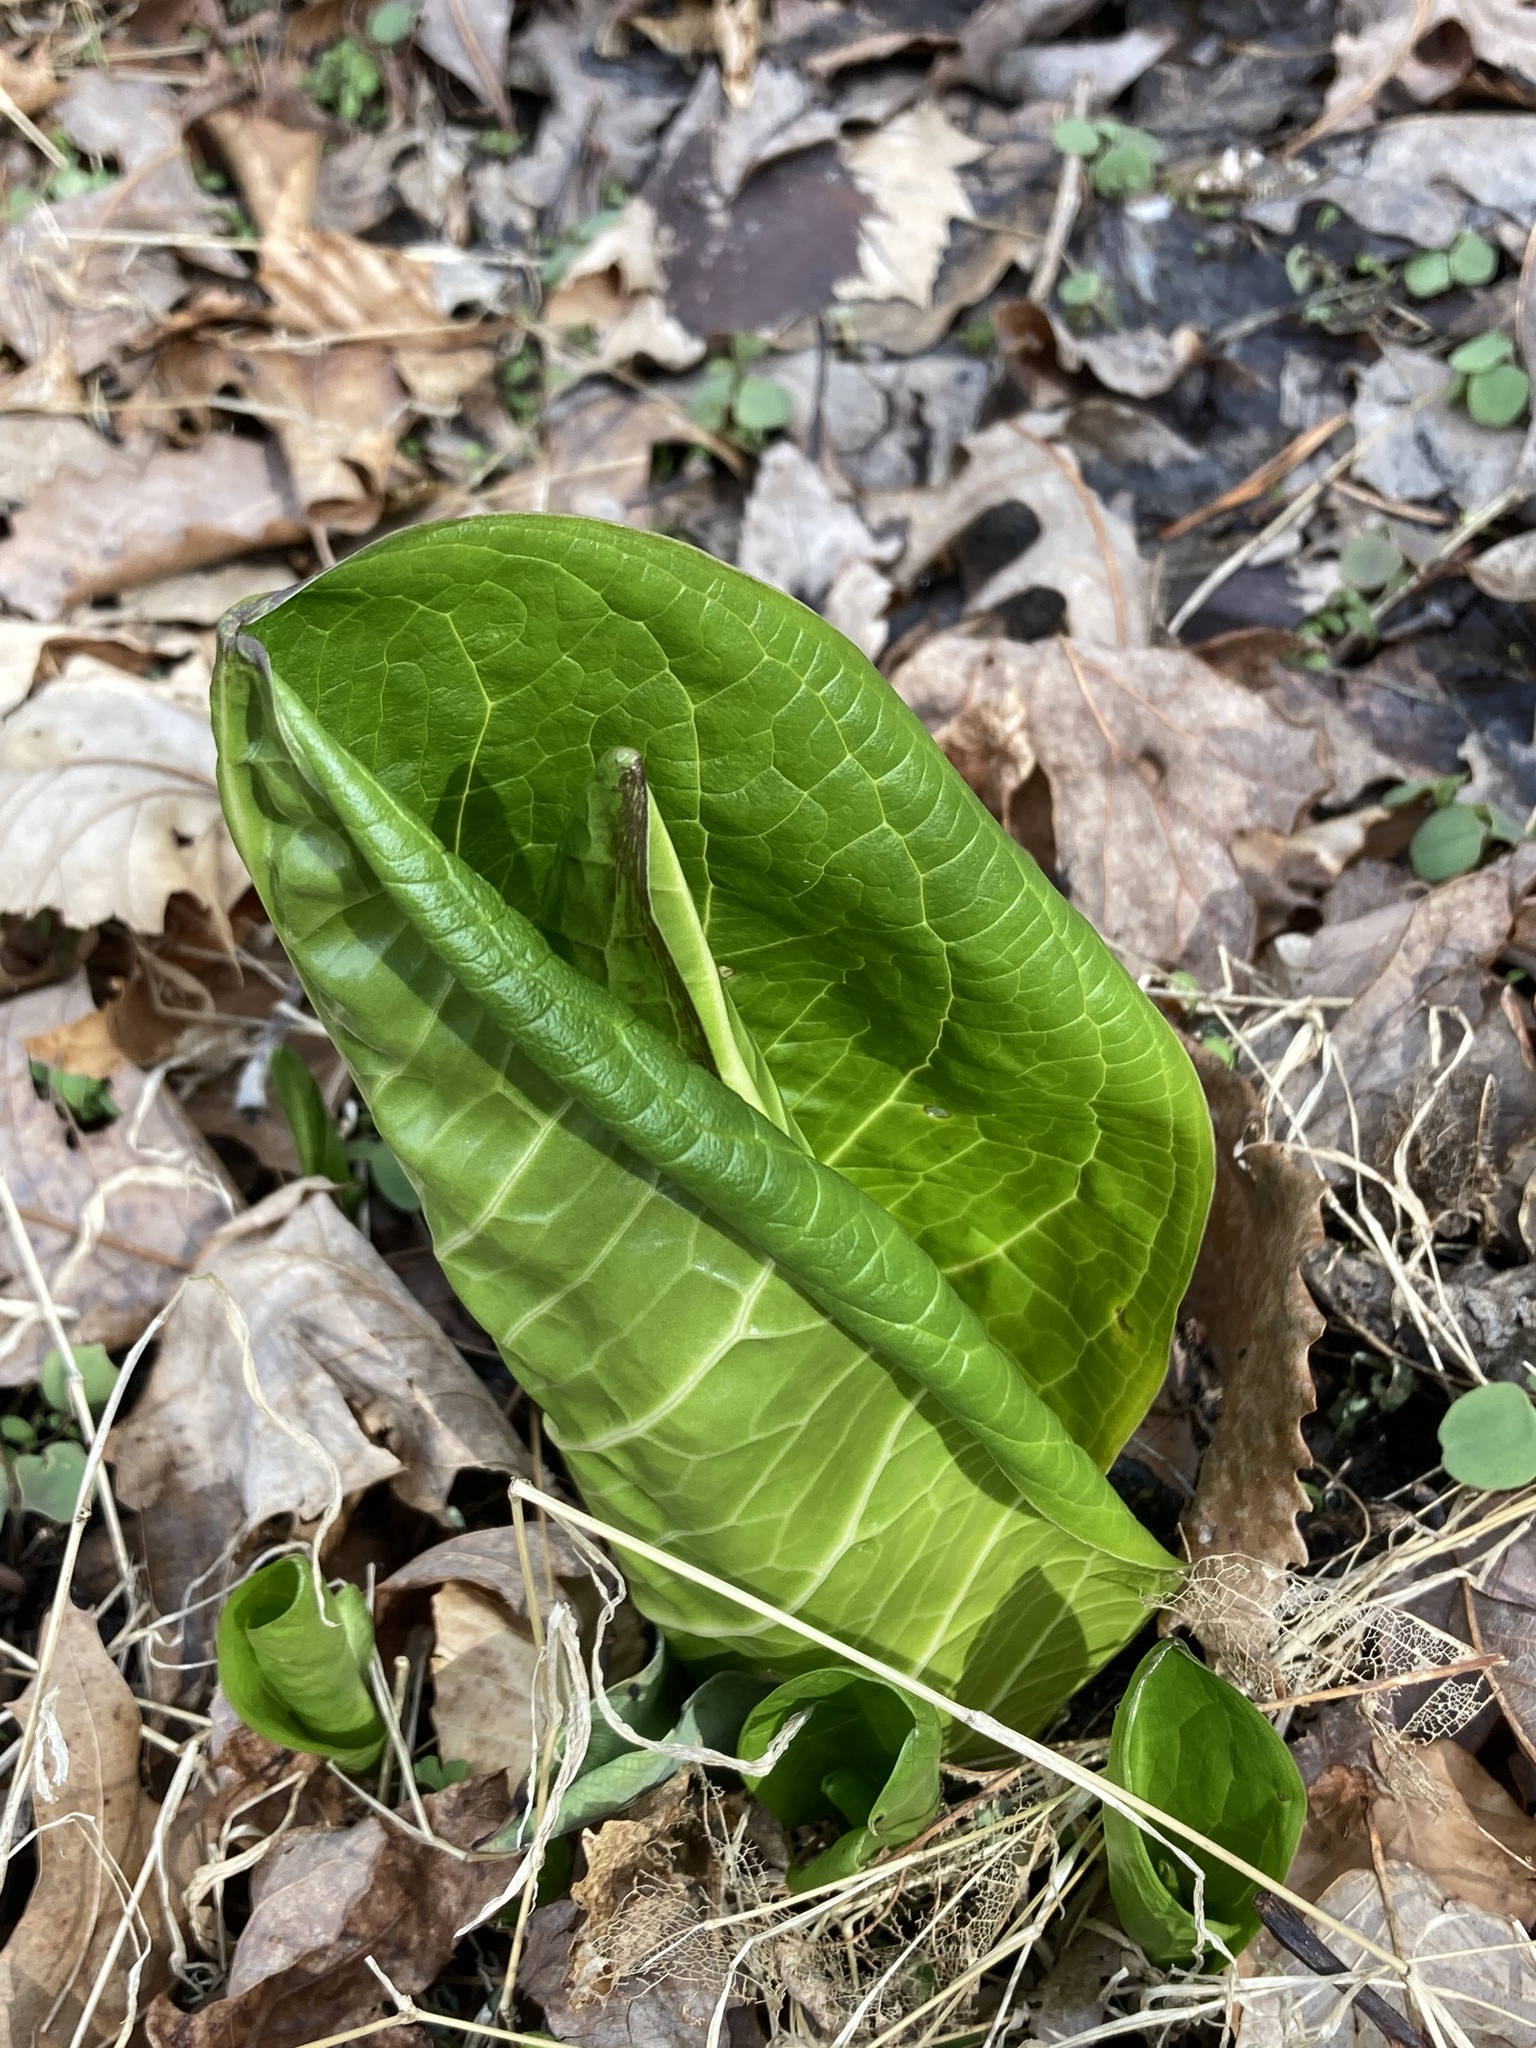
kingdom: Plantae
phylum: Tracheophyta
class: Liliopsida
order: Alismatales
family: Araceae
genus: Symplocarpus
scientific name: Symplocarpus foetidus
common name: Eastern skunk cabbage
